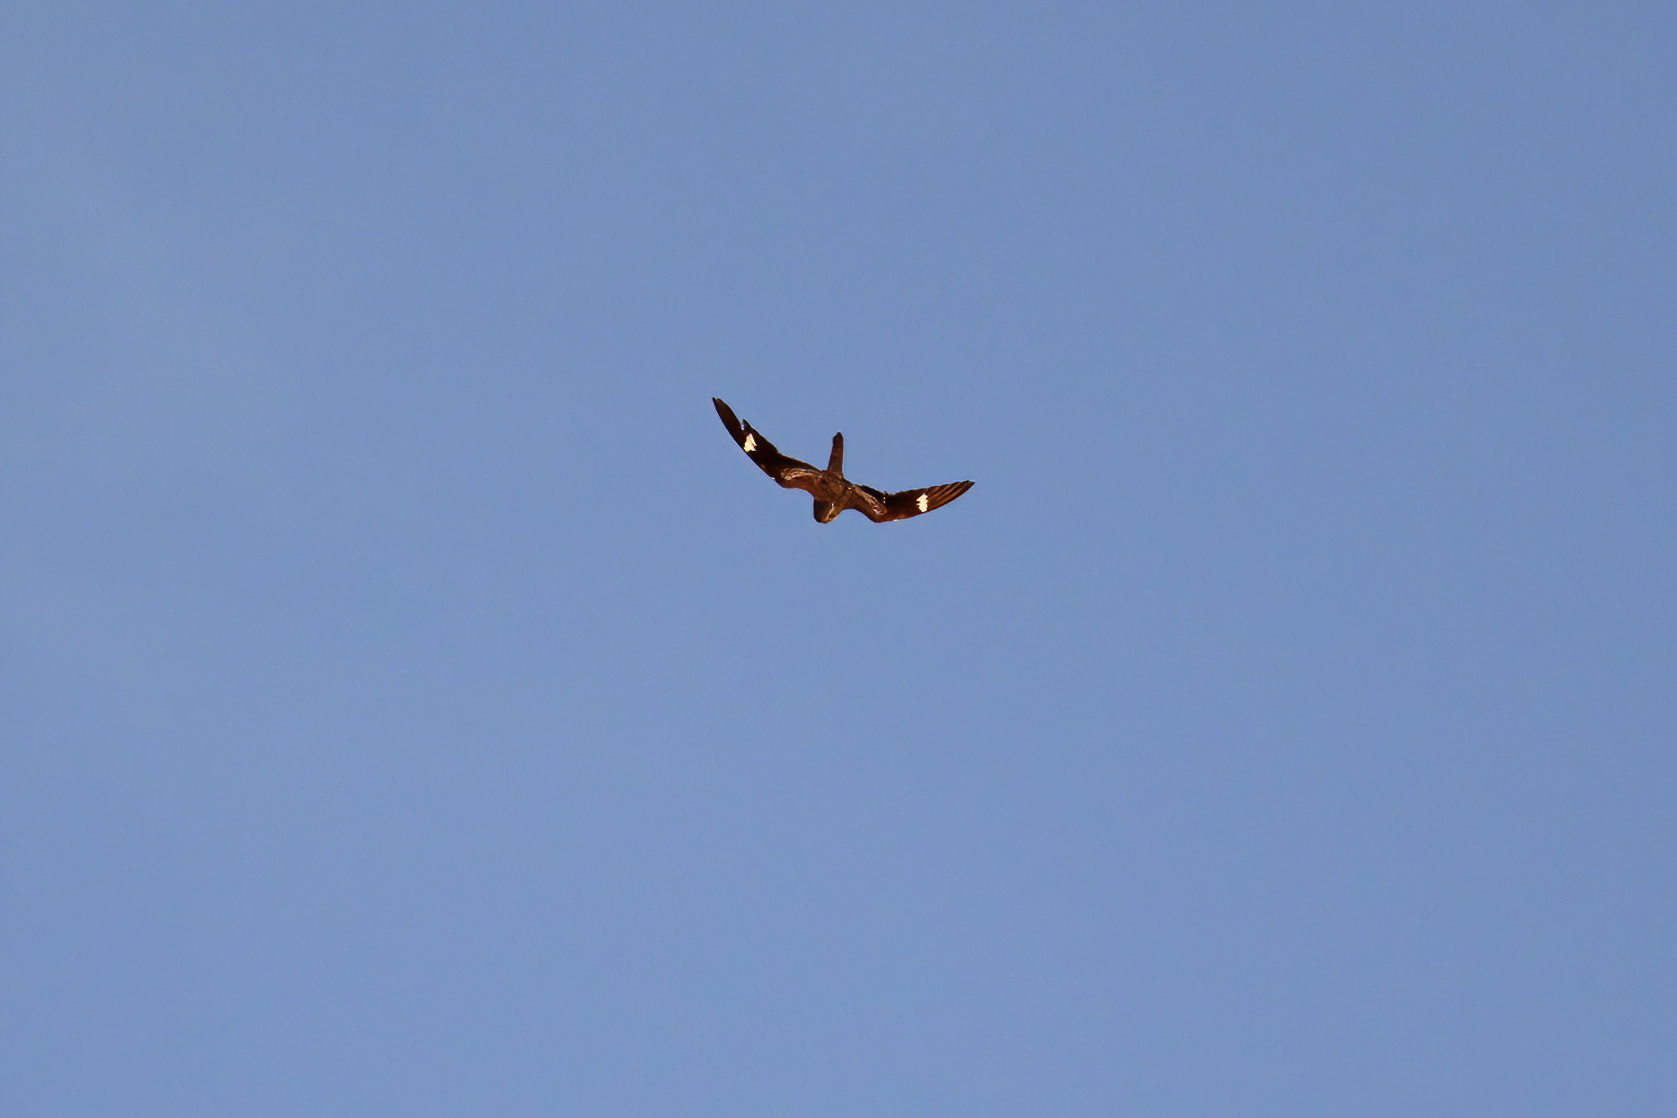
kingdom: Animalia
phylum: Chordata
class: Aves
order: Caprimulgiformes
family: Caprimulgidae
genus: Chordeiles
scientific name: Chordeiles minor
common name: Common nighthawk
